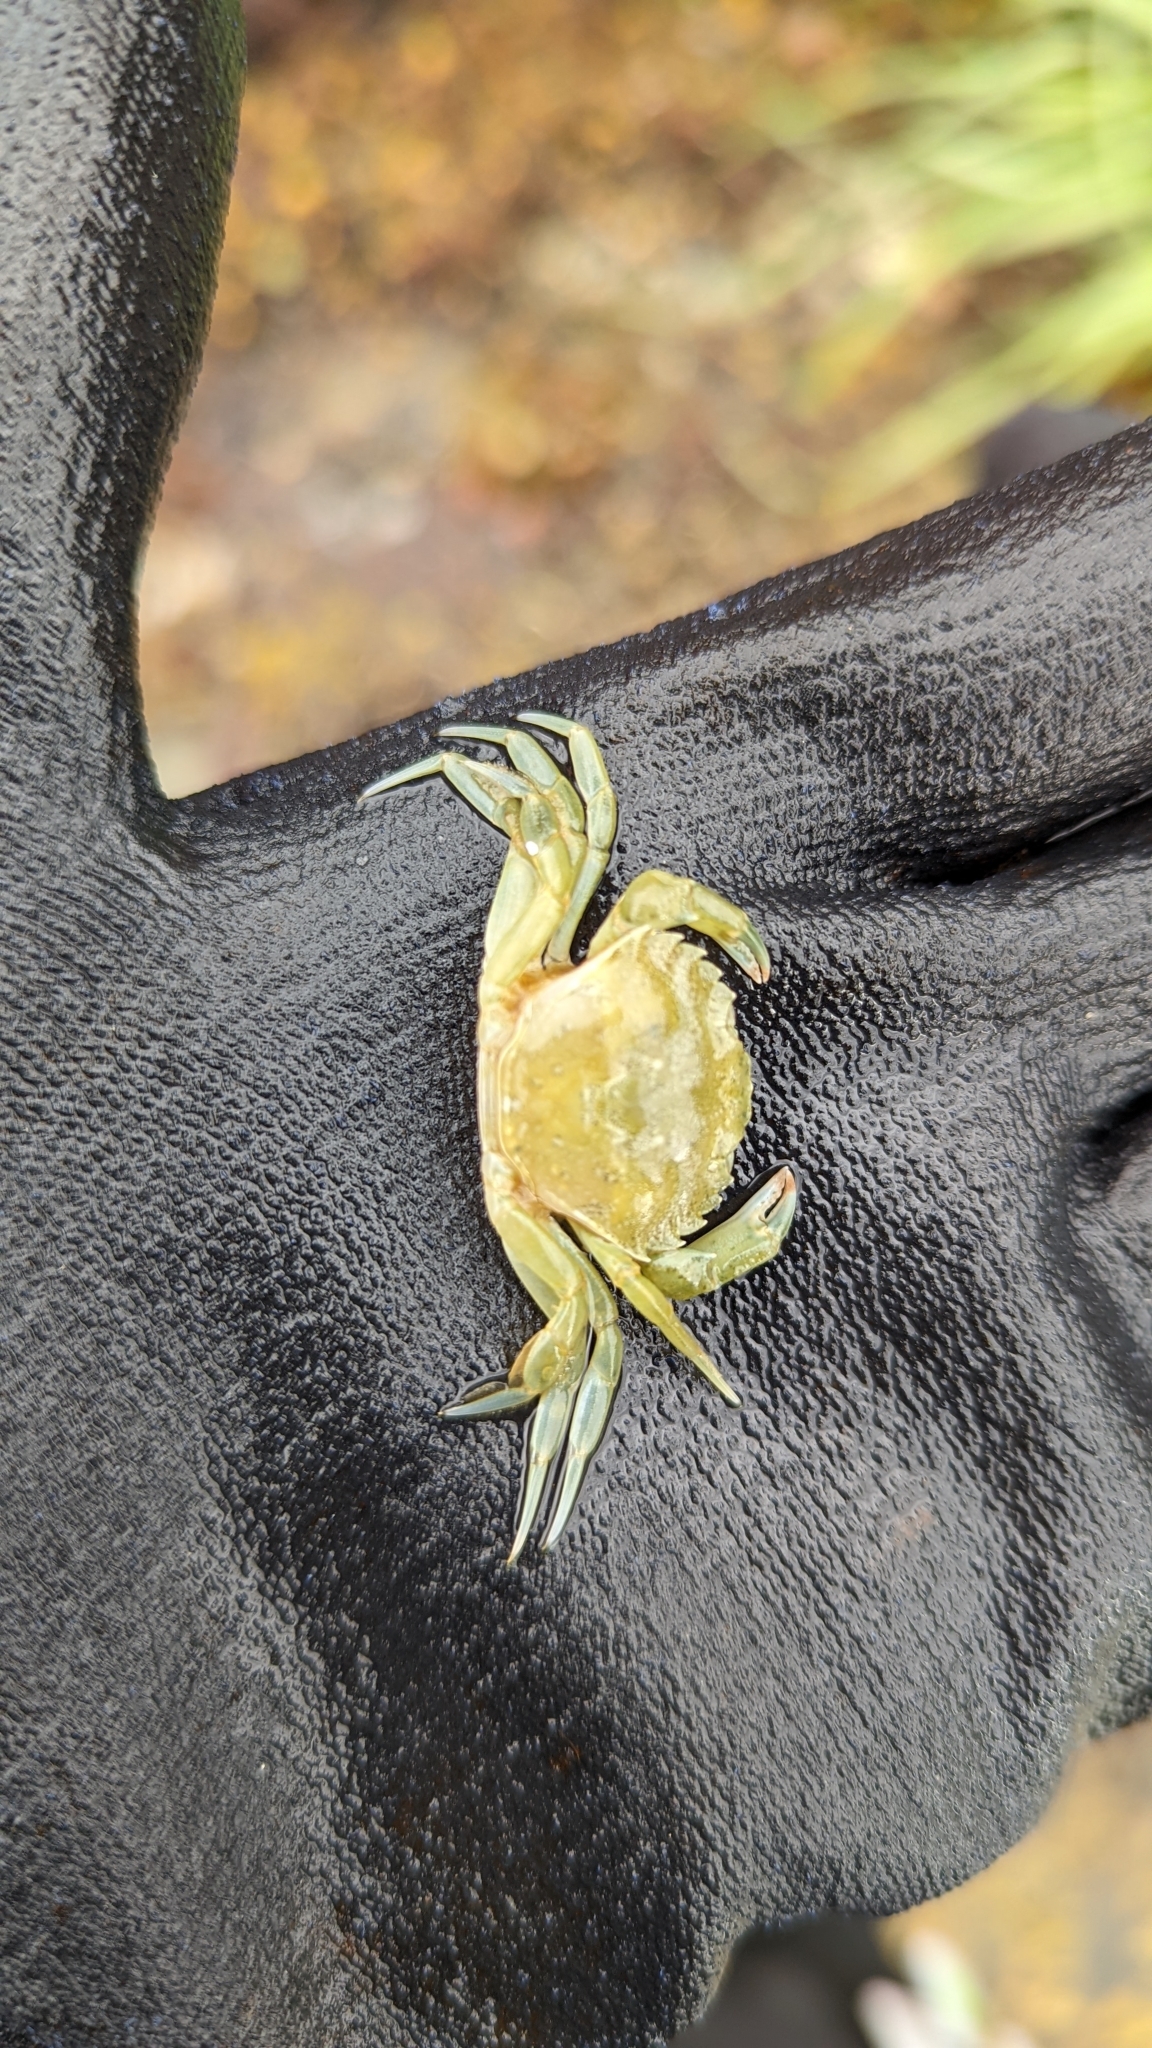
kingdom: Animalia
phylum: Arthropoda
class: Malacostraca
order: Decapoda
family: Carcinidae
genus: Carcinus
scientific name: Carcinus maenas
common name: European green crab
